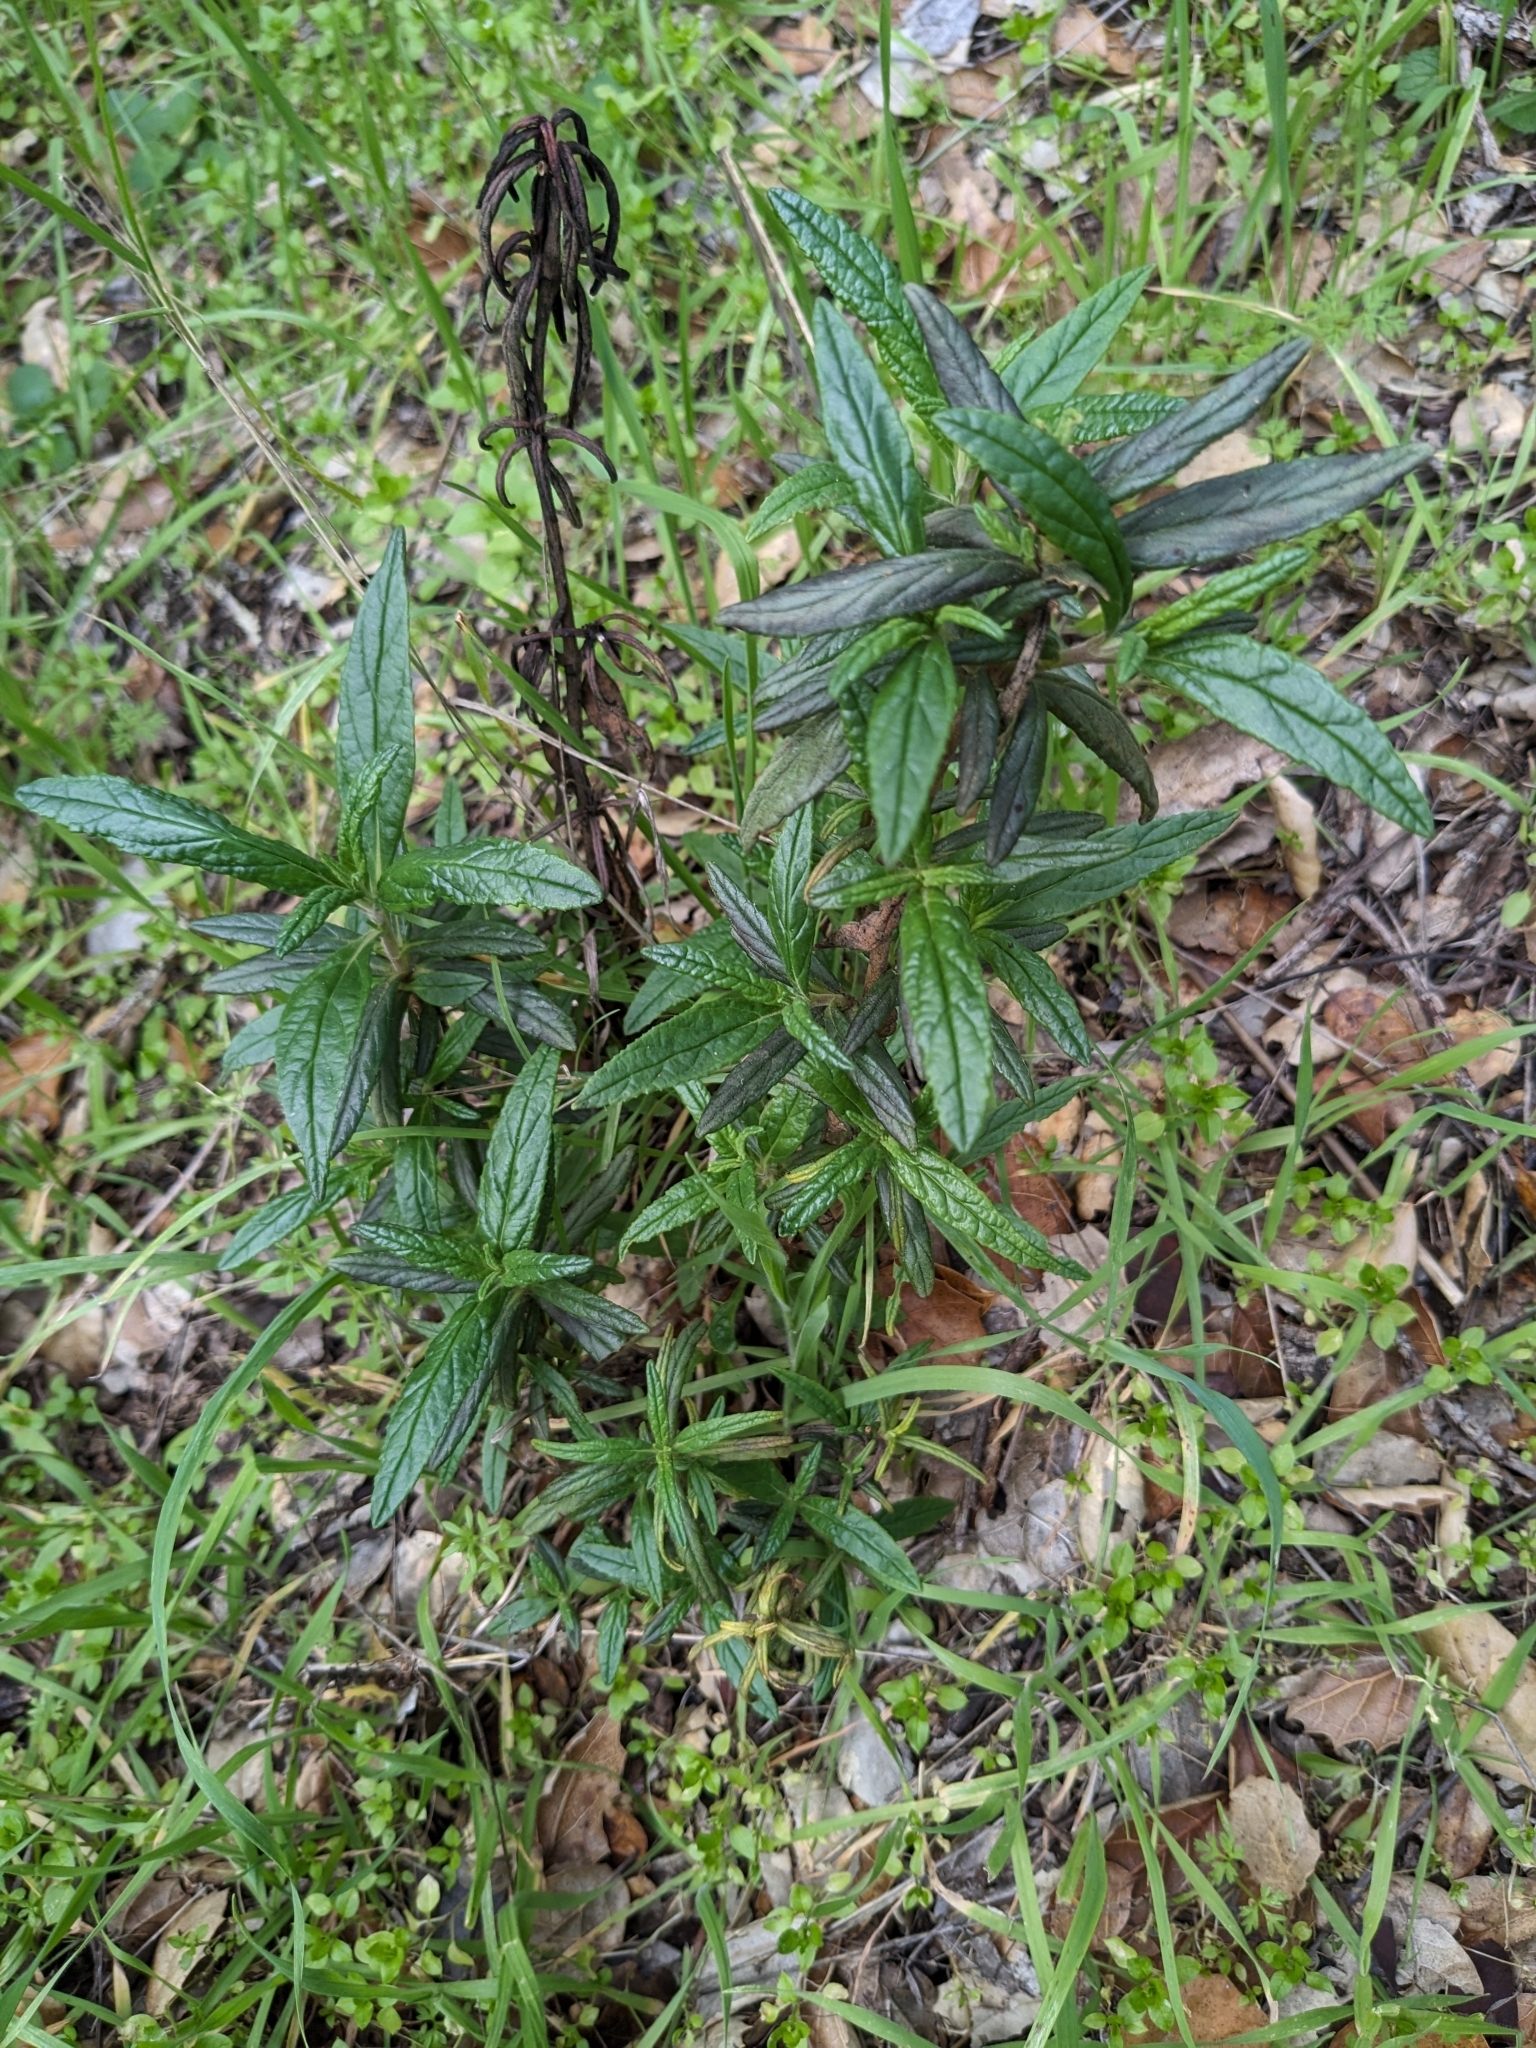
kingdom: Plantae
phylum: Tracheophyta
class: Magnoliopsida
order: Lamiales
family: Phrymaceae
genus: Diplacus
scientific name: Diplacus aurantiacus
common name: Bush monkey-flower
